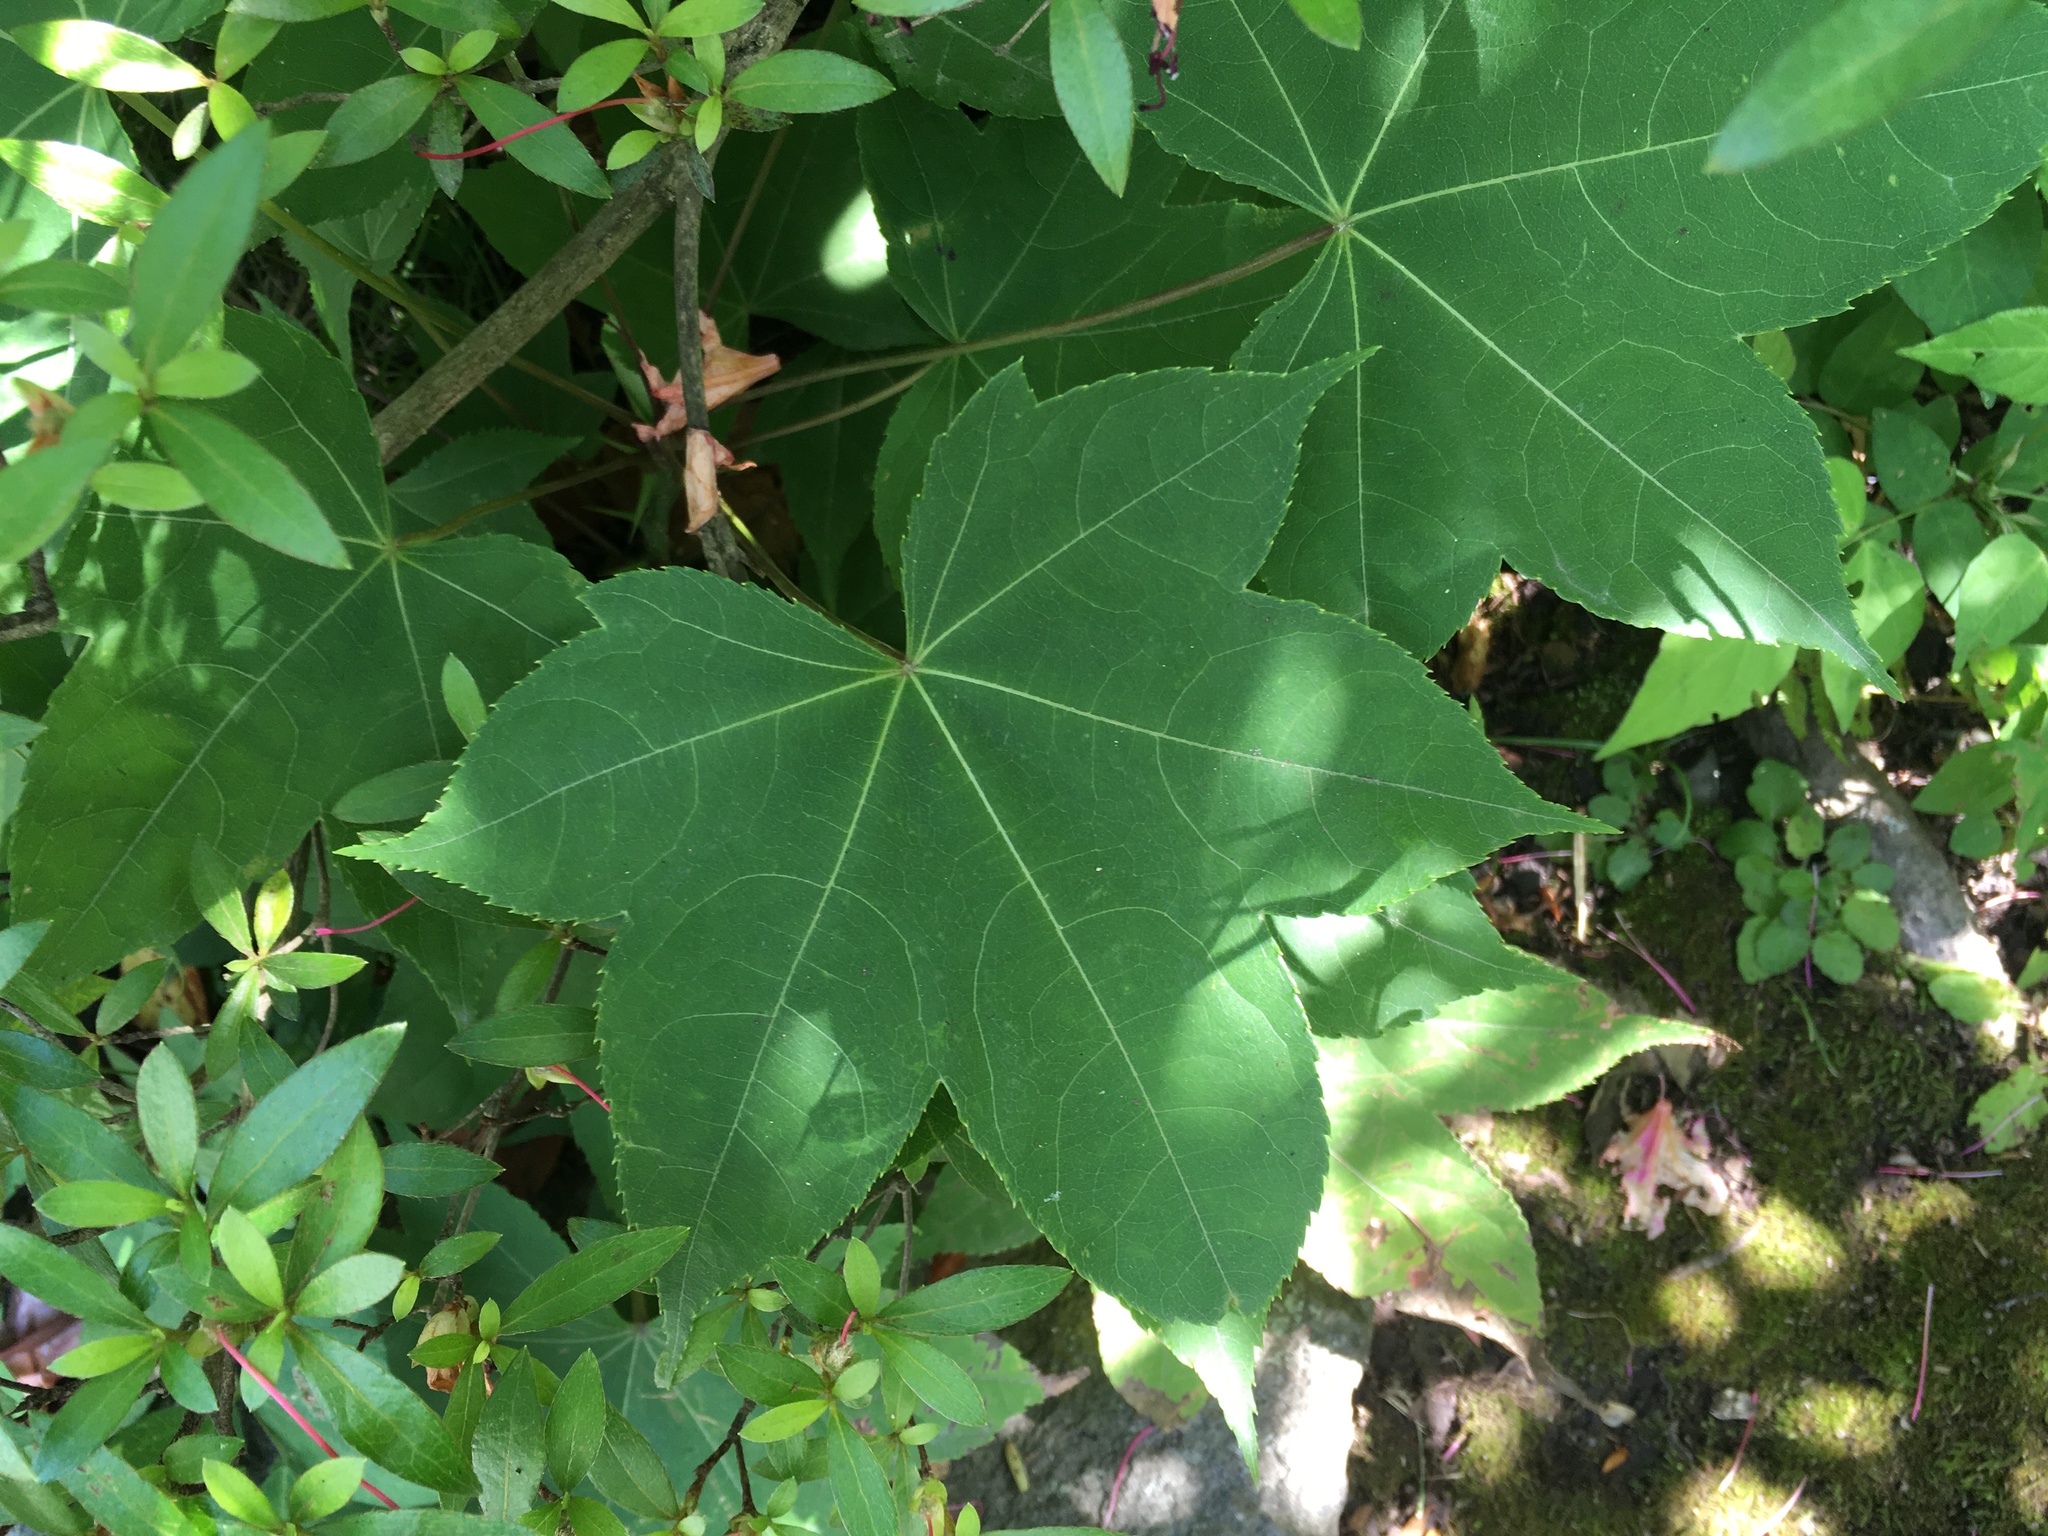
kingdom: Plantae
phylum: Tracheophyta
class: Magnoliopsida
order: Apiales
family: Araliaceae
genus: Kalopanax
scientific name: Kalopanax septemlobus
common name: Castor aralia
